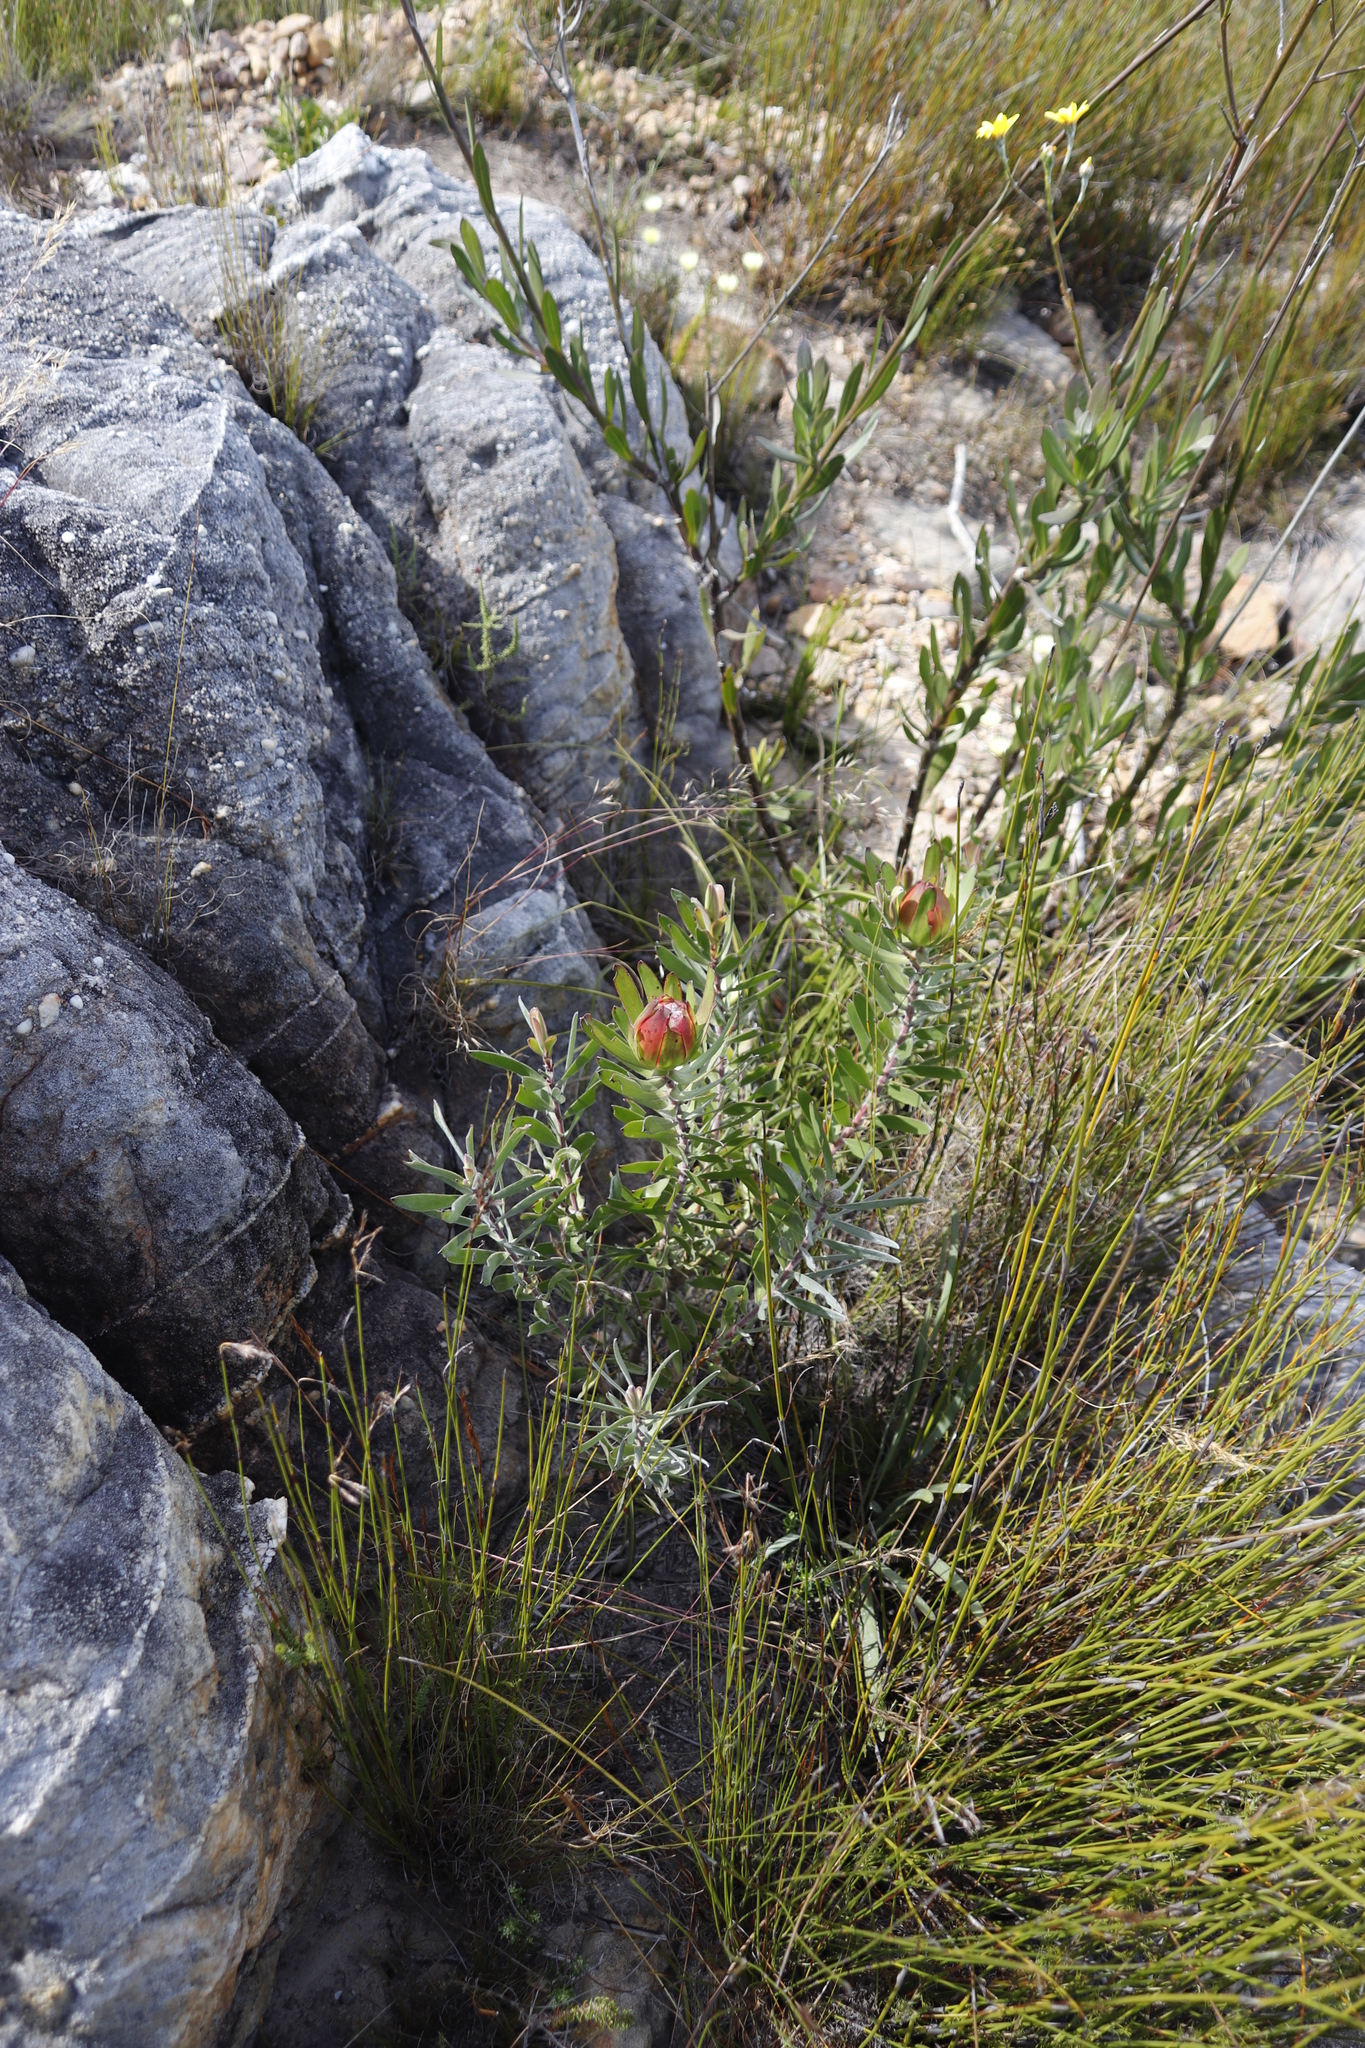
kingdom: Plantae
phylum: Tracheophyta
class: Magnoliopsida
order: Proteales
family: Proteaceae
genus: Leucadendron
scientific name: Leucadendron salignum
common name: Common sunshine conebush
